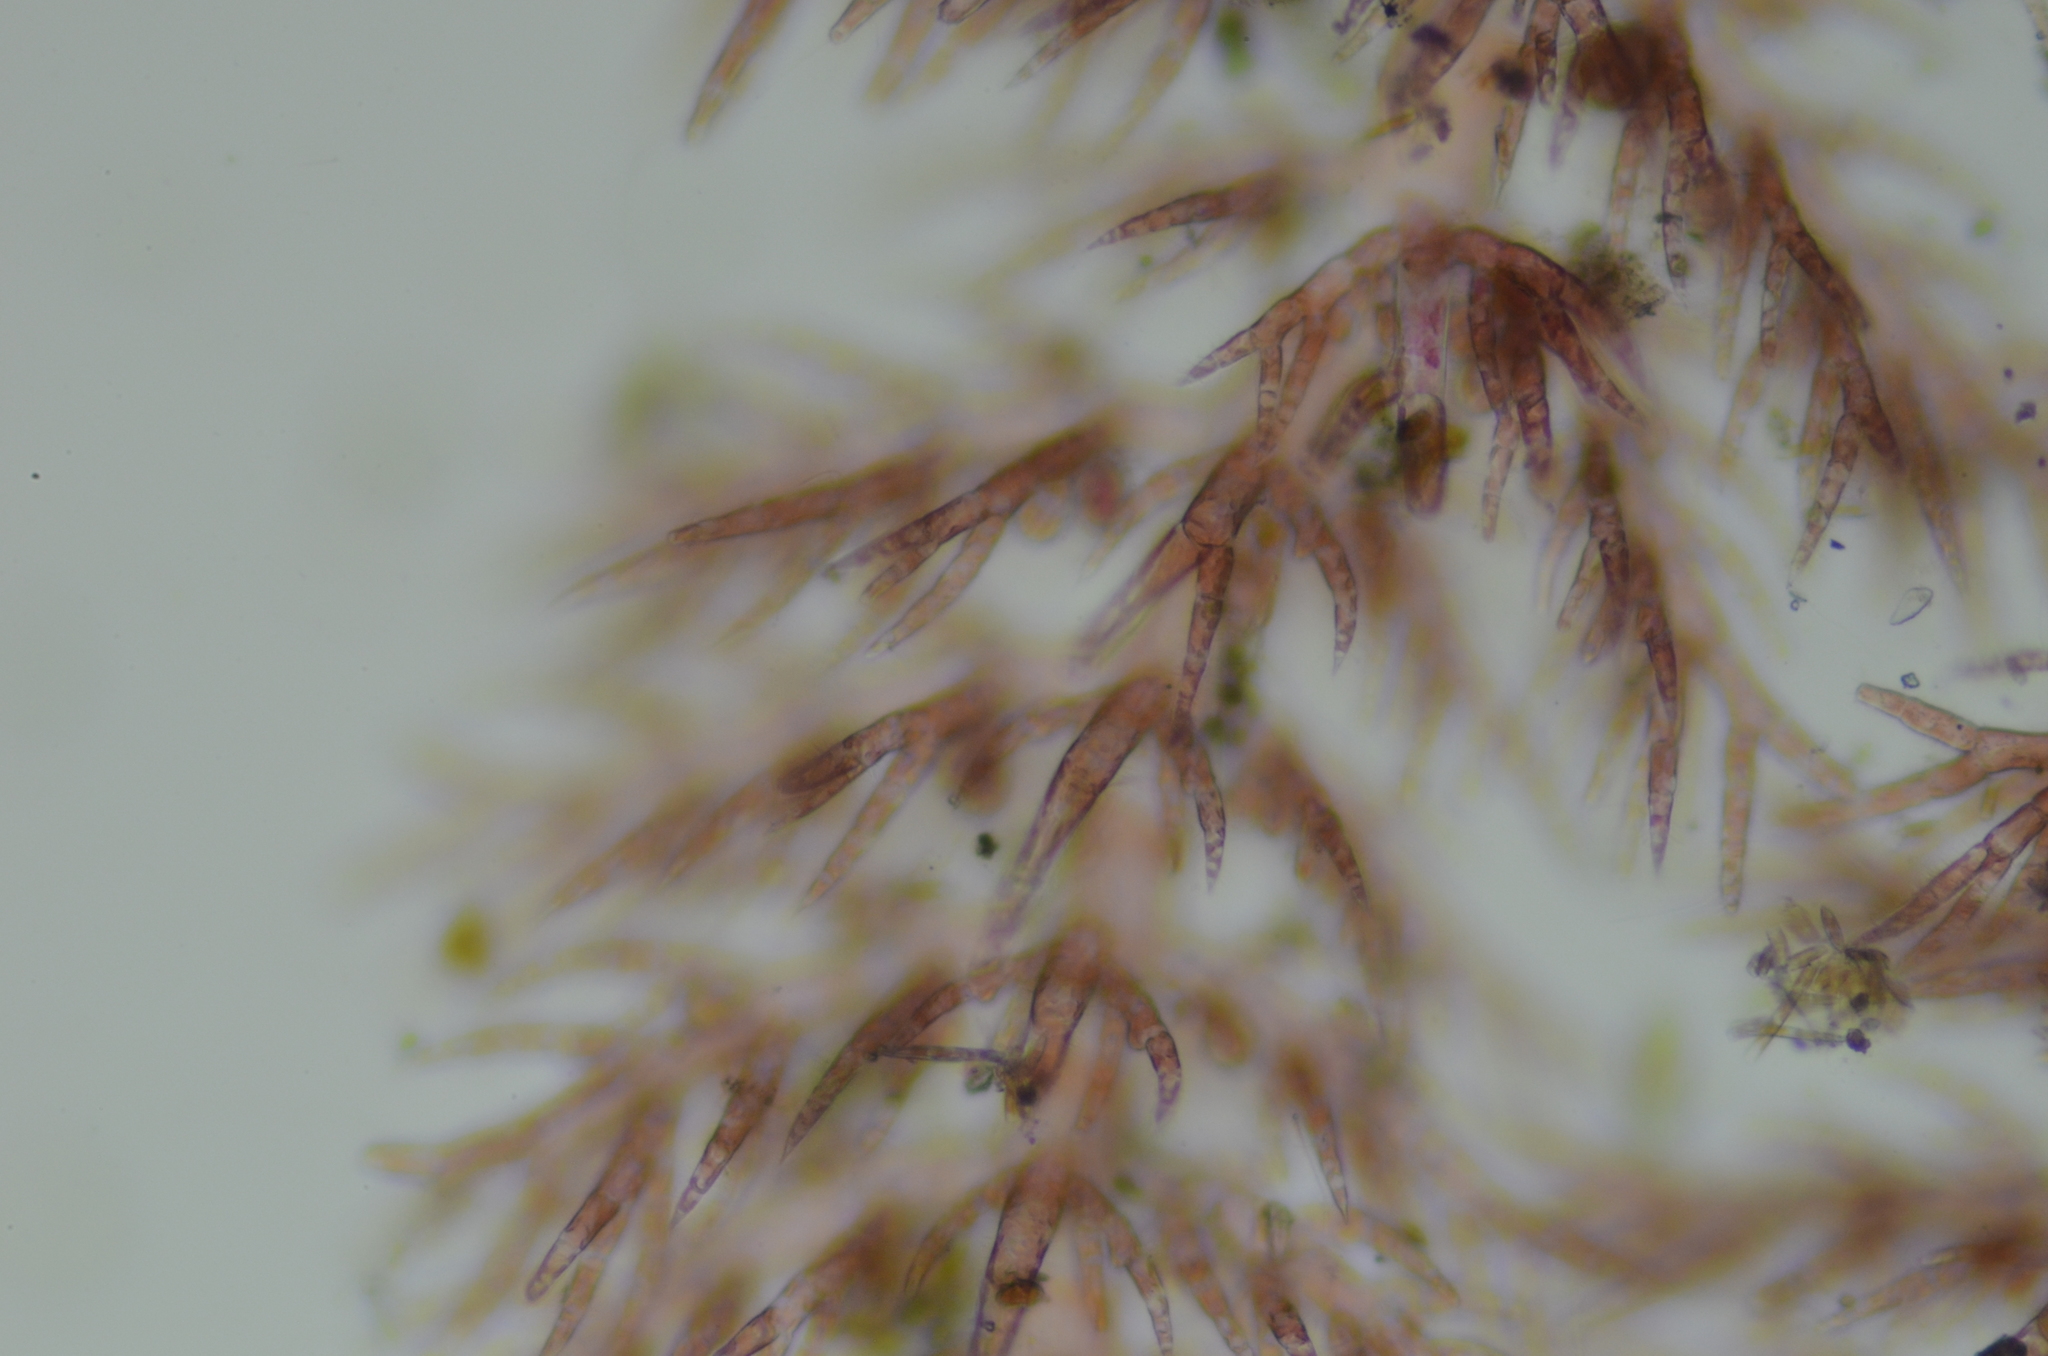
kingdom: Plantae
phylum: Rhodophyta
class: Florideophyceae
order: Ceramiales
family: Ceramiaceae
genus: Pterothamnion
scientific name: Pterothamnion pectinatum
